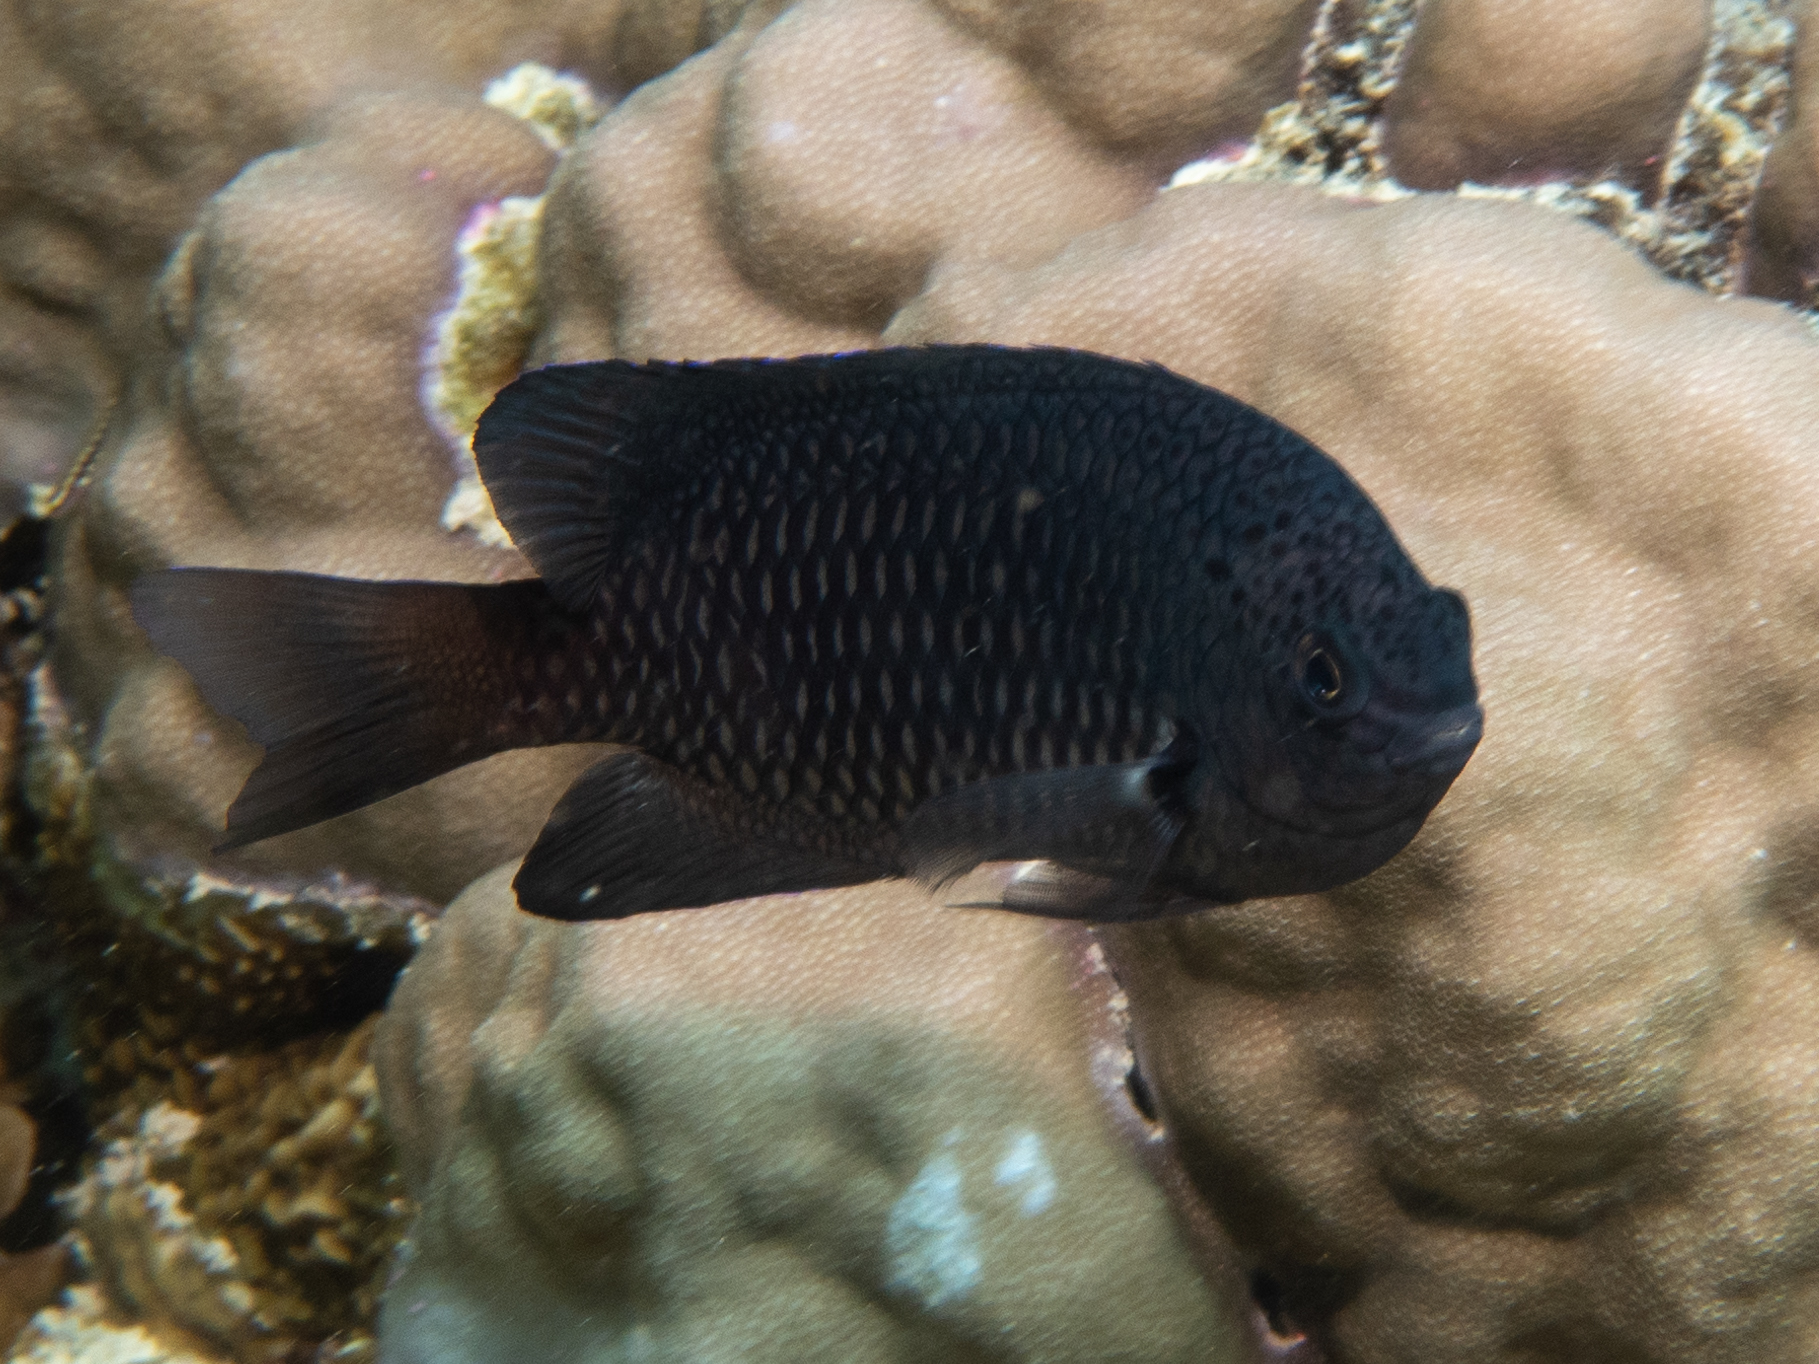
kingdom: Animalia
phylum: Chordata
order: Perciformes
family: Pomacentridae
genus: Pomacentrus
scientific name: Pomacentrus indicus
